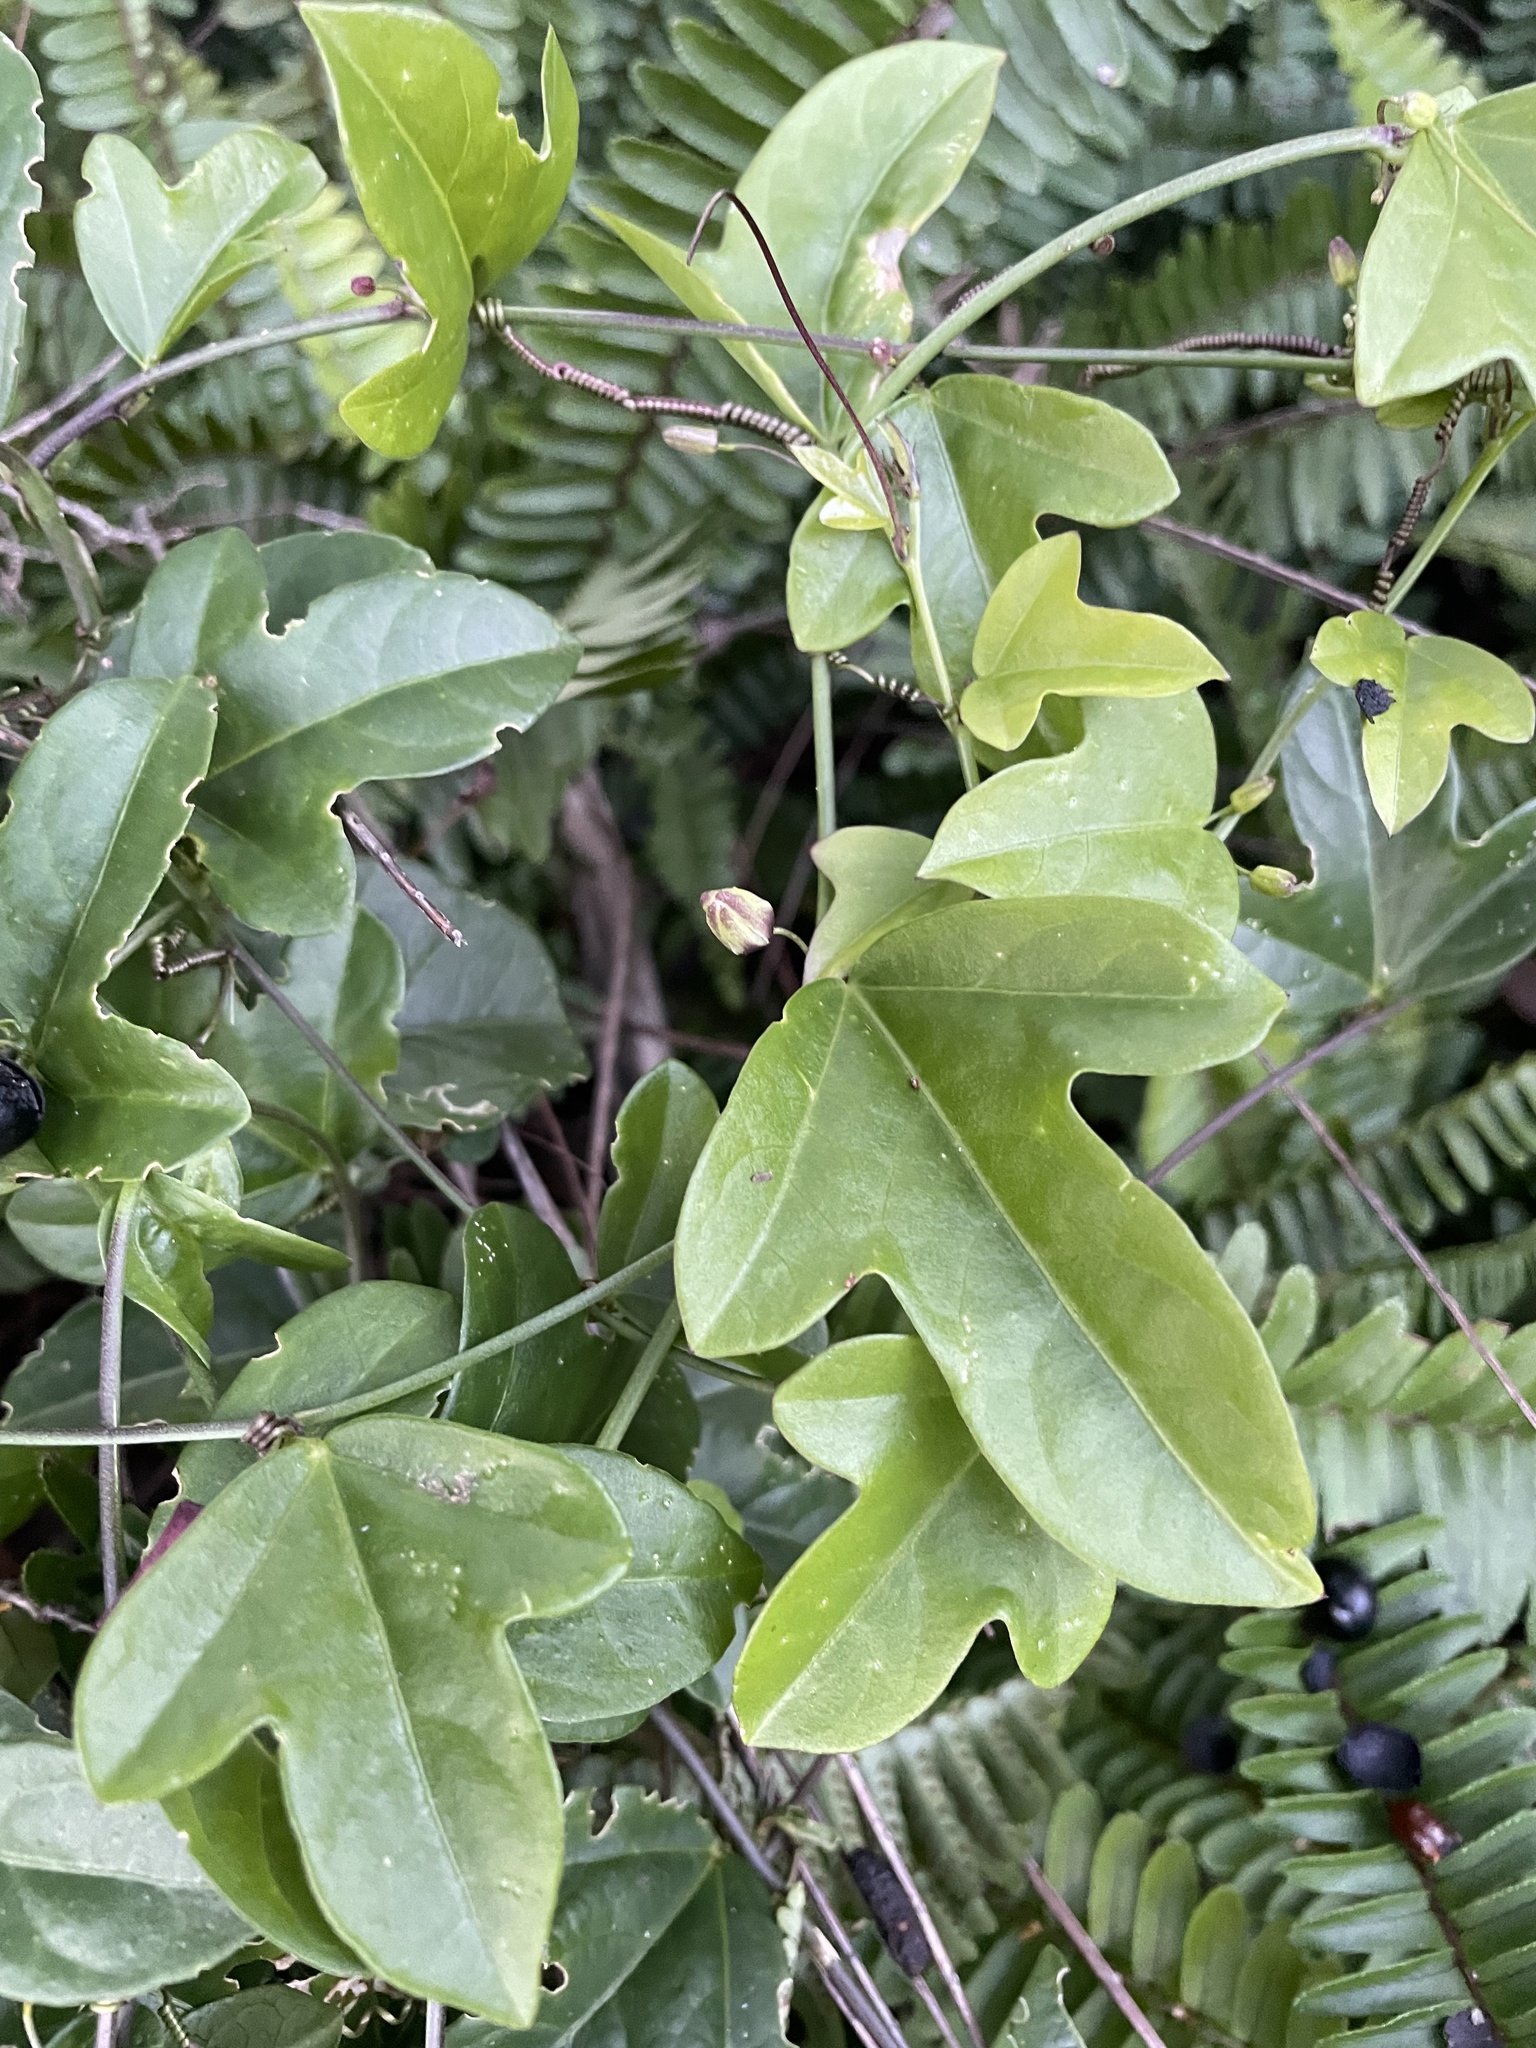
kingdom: Plantae
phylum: Tracheophyta
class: Magnoliopsida
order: Malpighiales
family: Passifloraceae
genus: Passiflora
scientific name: Passiflora pallida
